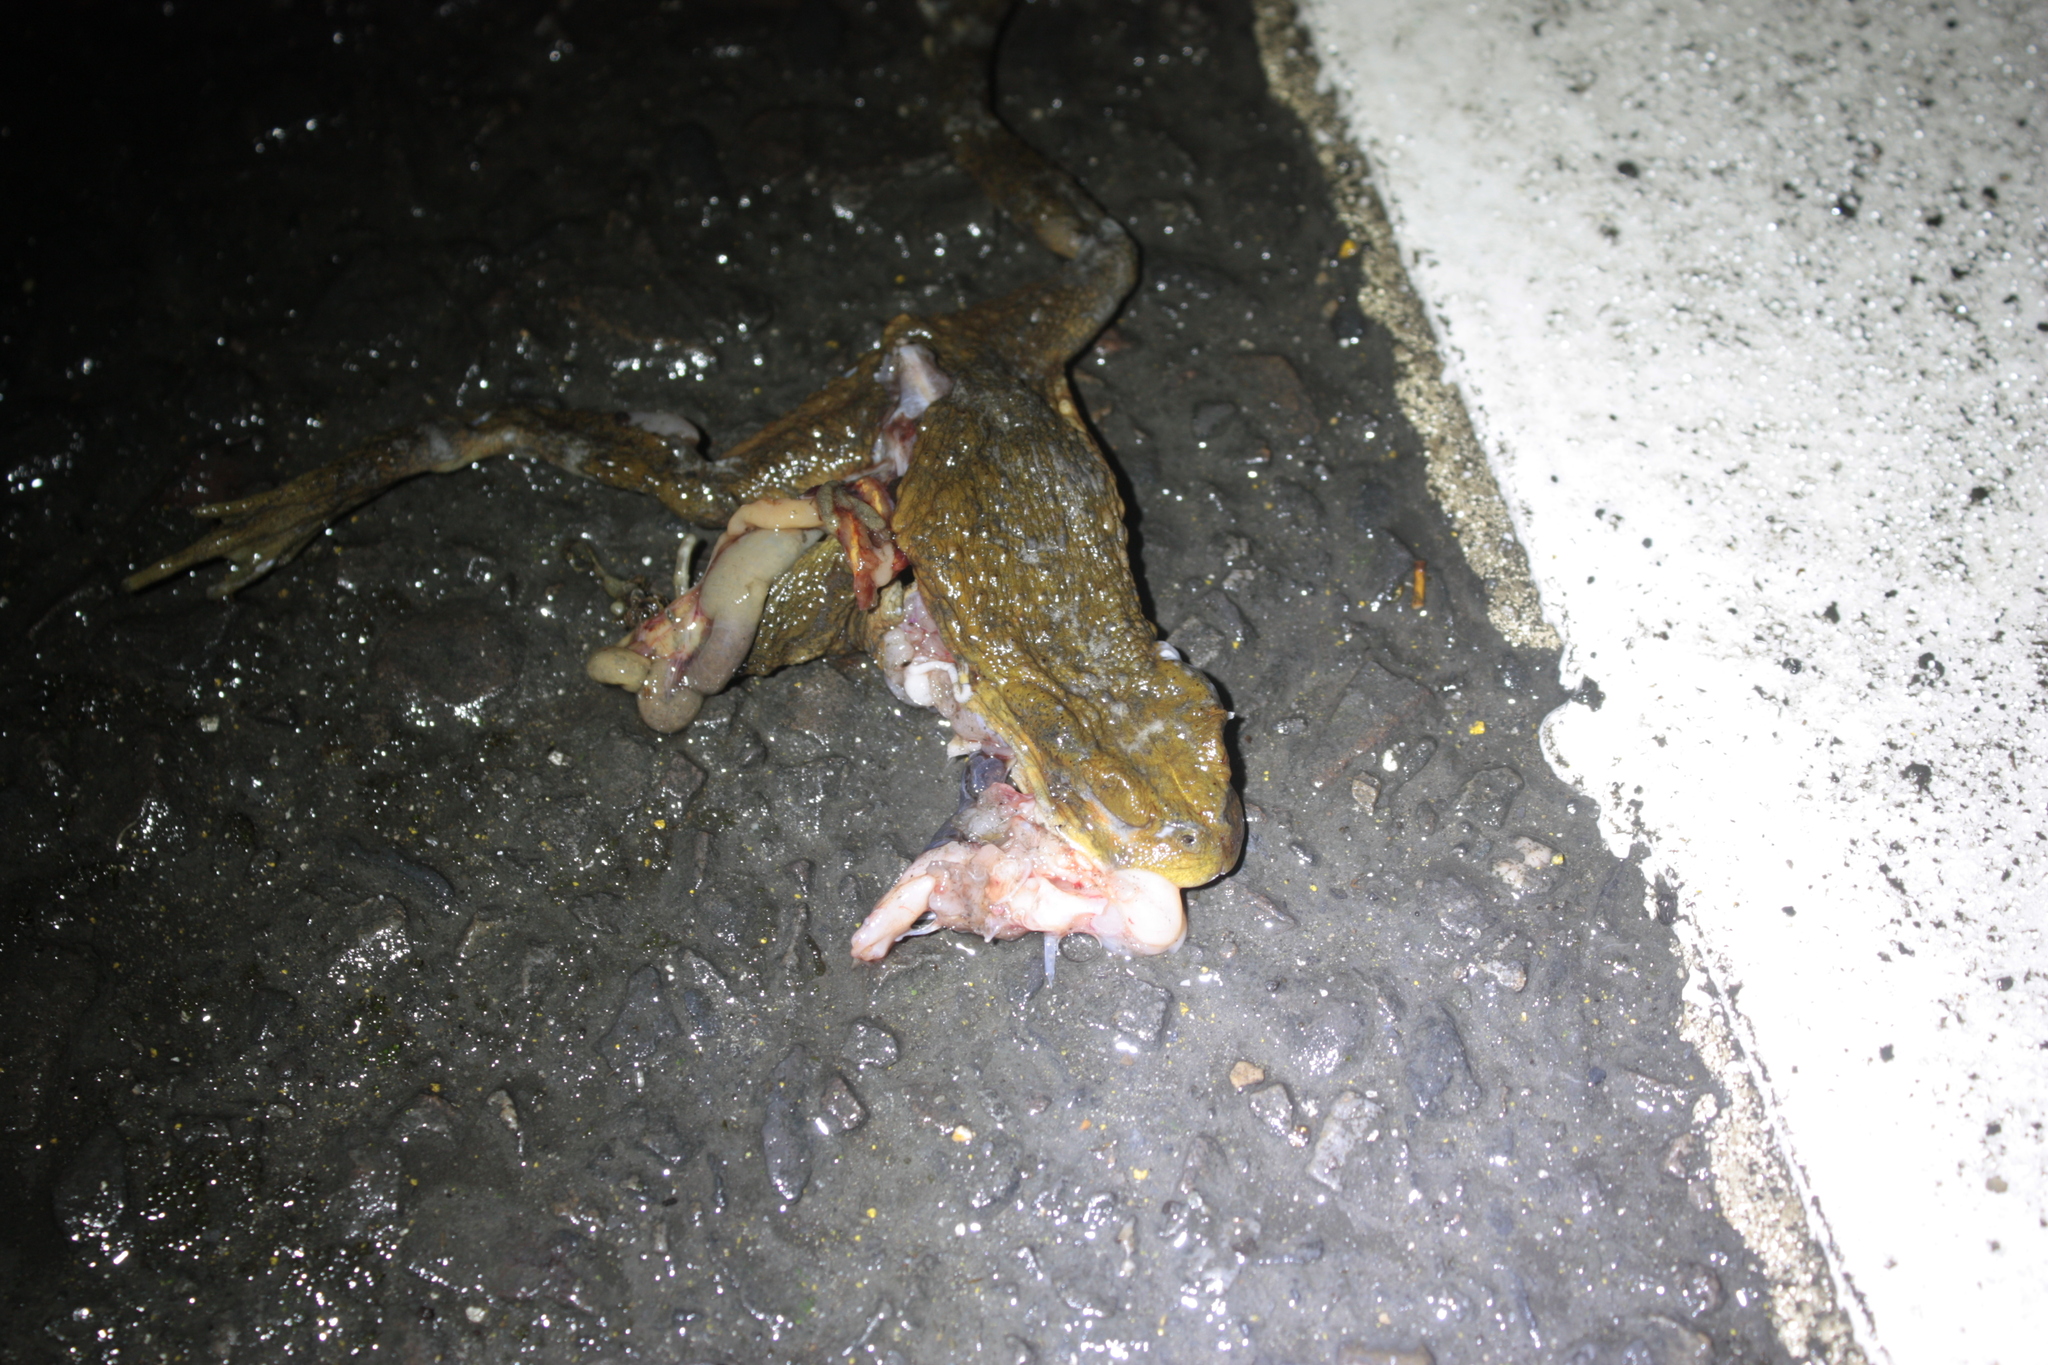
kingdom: Animalia
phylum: Chordata
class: Amphibia
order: Anura
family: Bufonidae
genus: Bufo
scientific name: Bufo bankorensis
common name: Bankor toad
